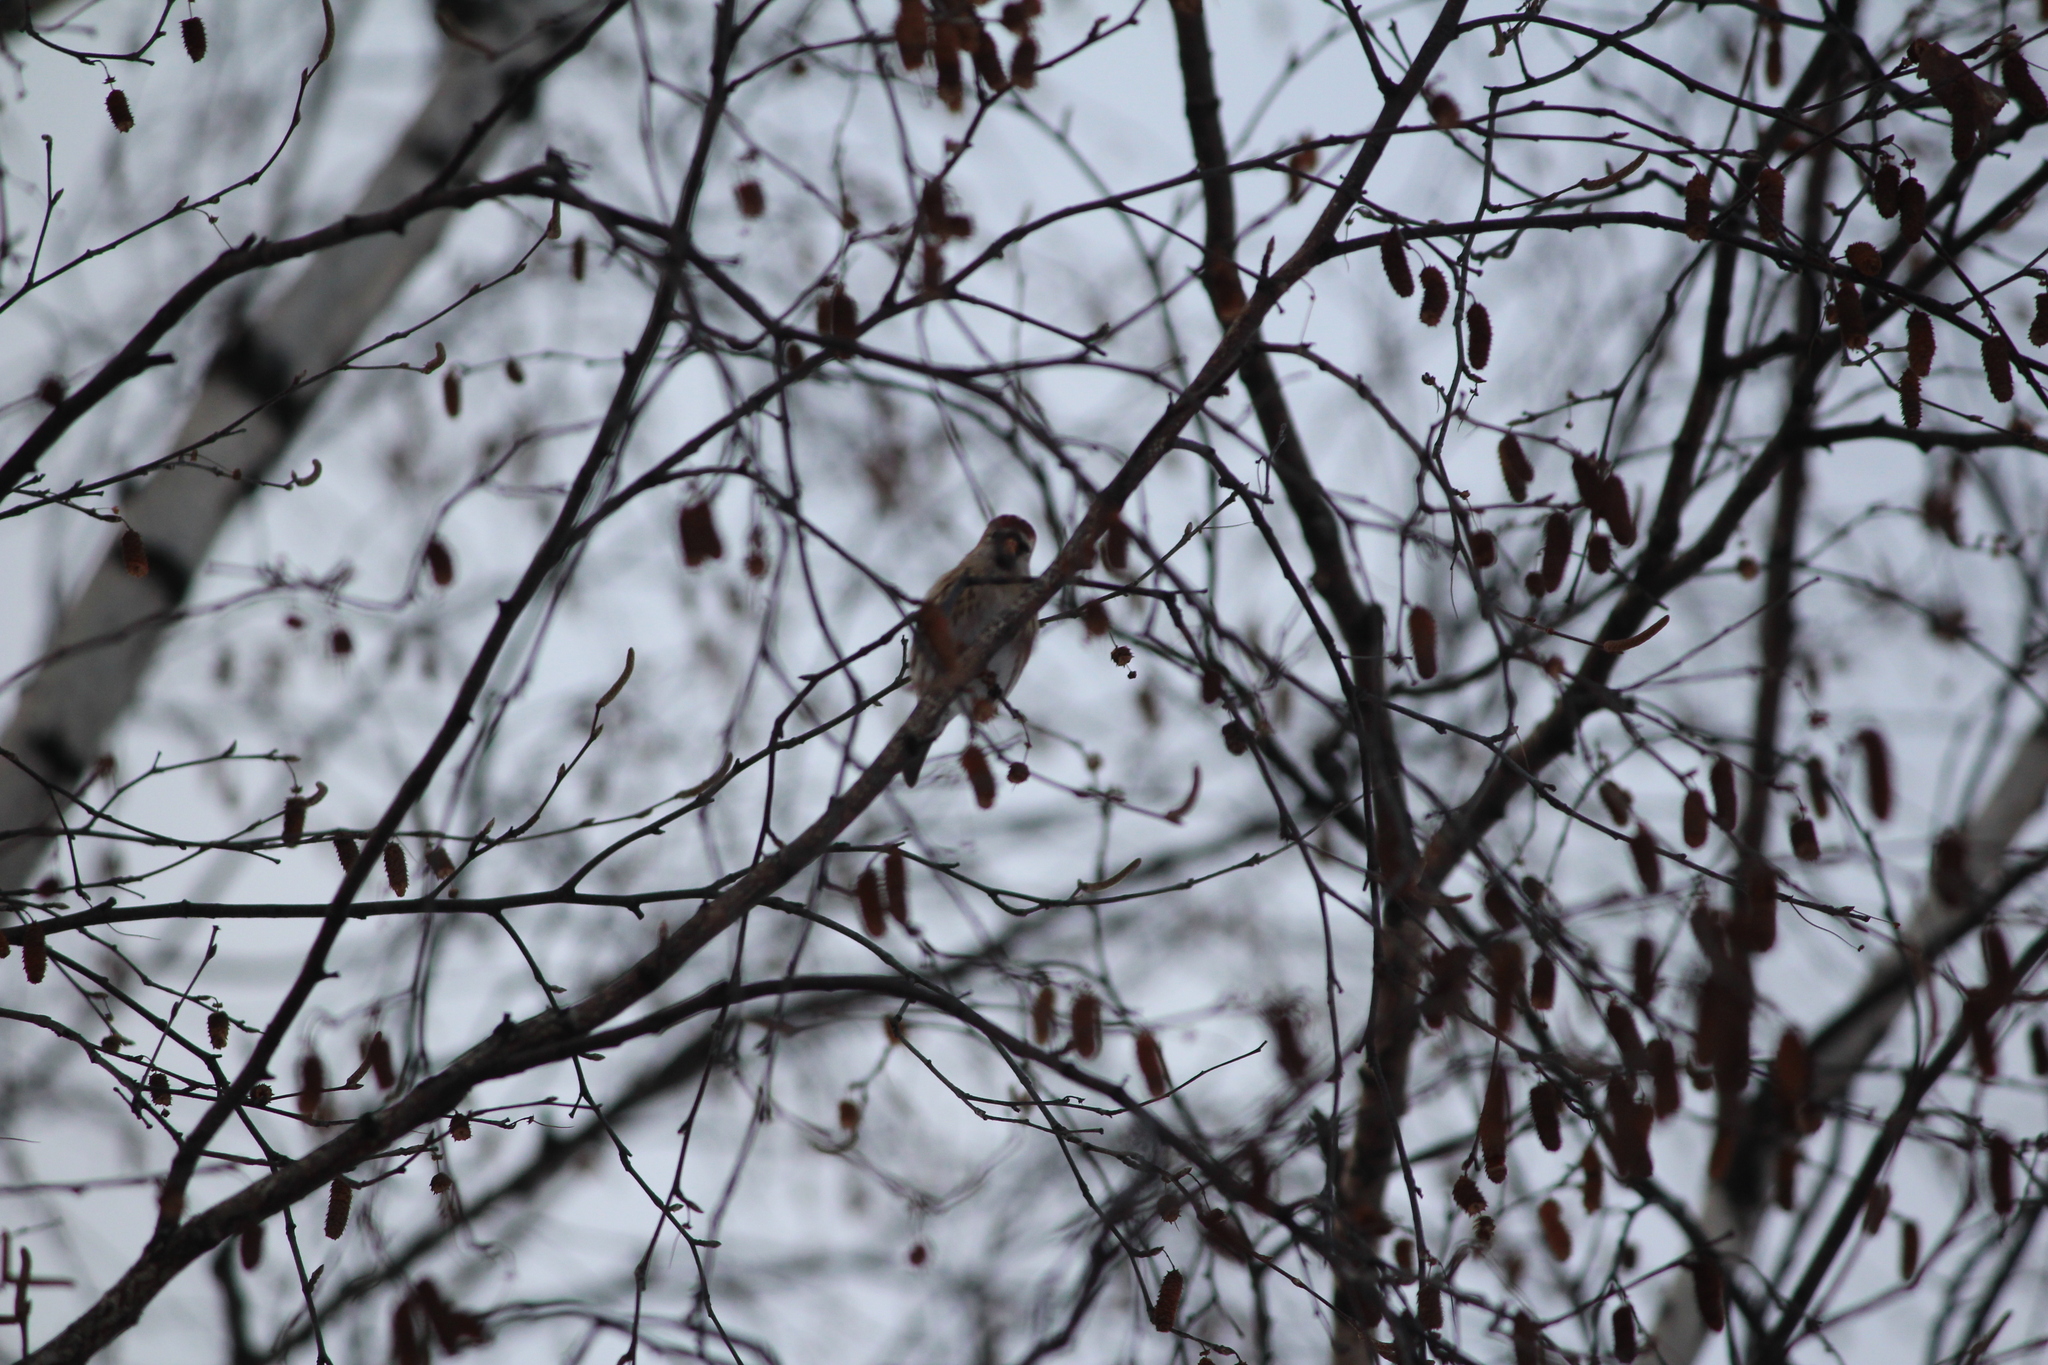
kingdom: Animalia
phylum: Chordata
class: Aves
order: Passeriformes
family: Fringillidae
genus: Acanthis
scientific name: Acanthis flammea
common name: Common redpoll
